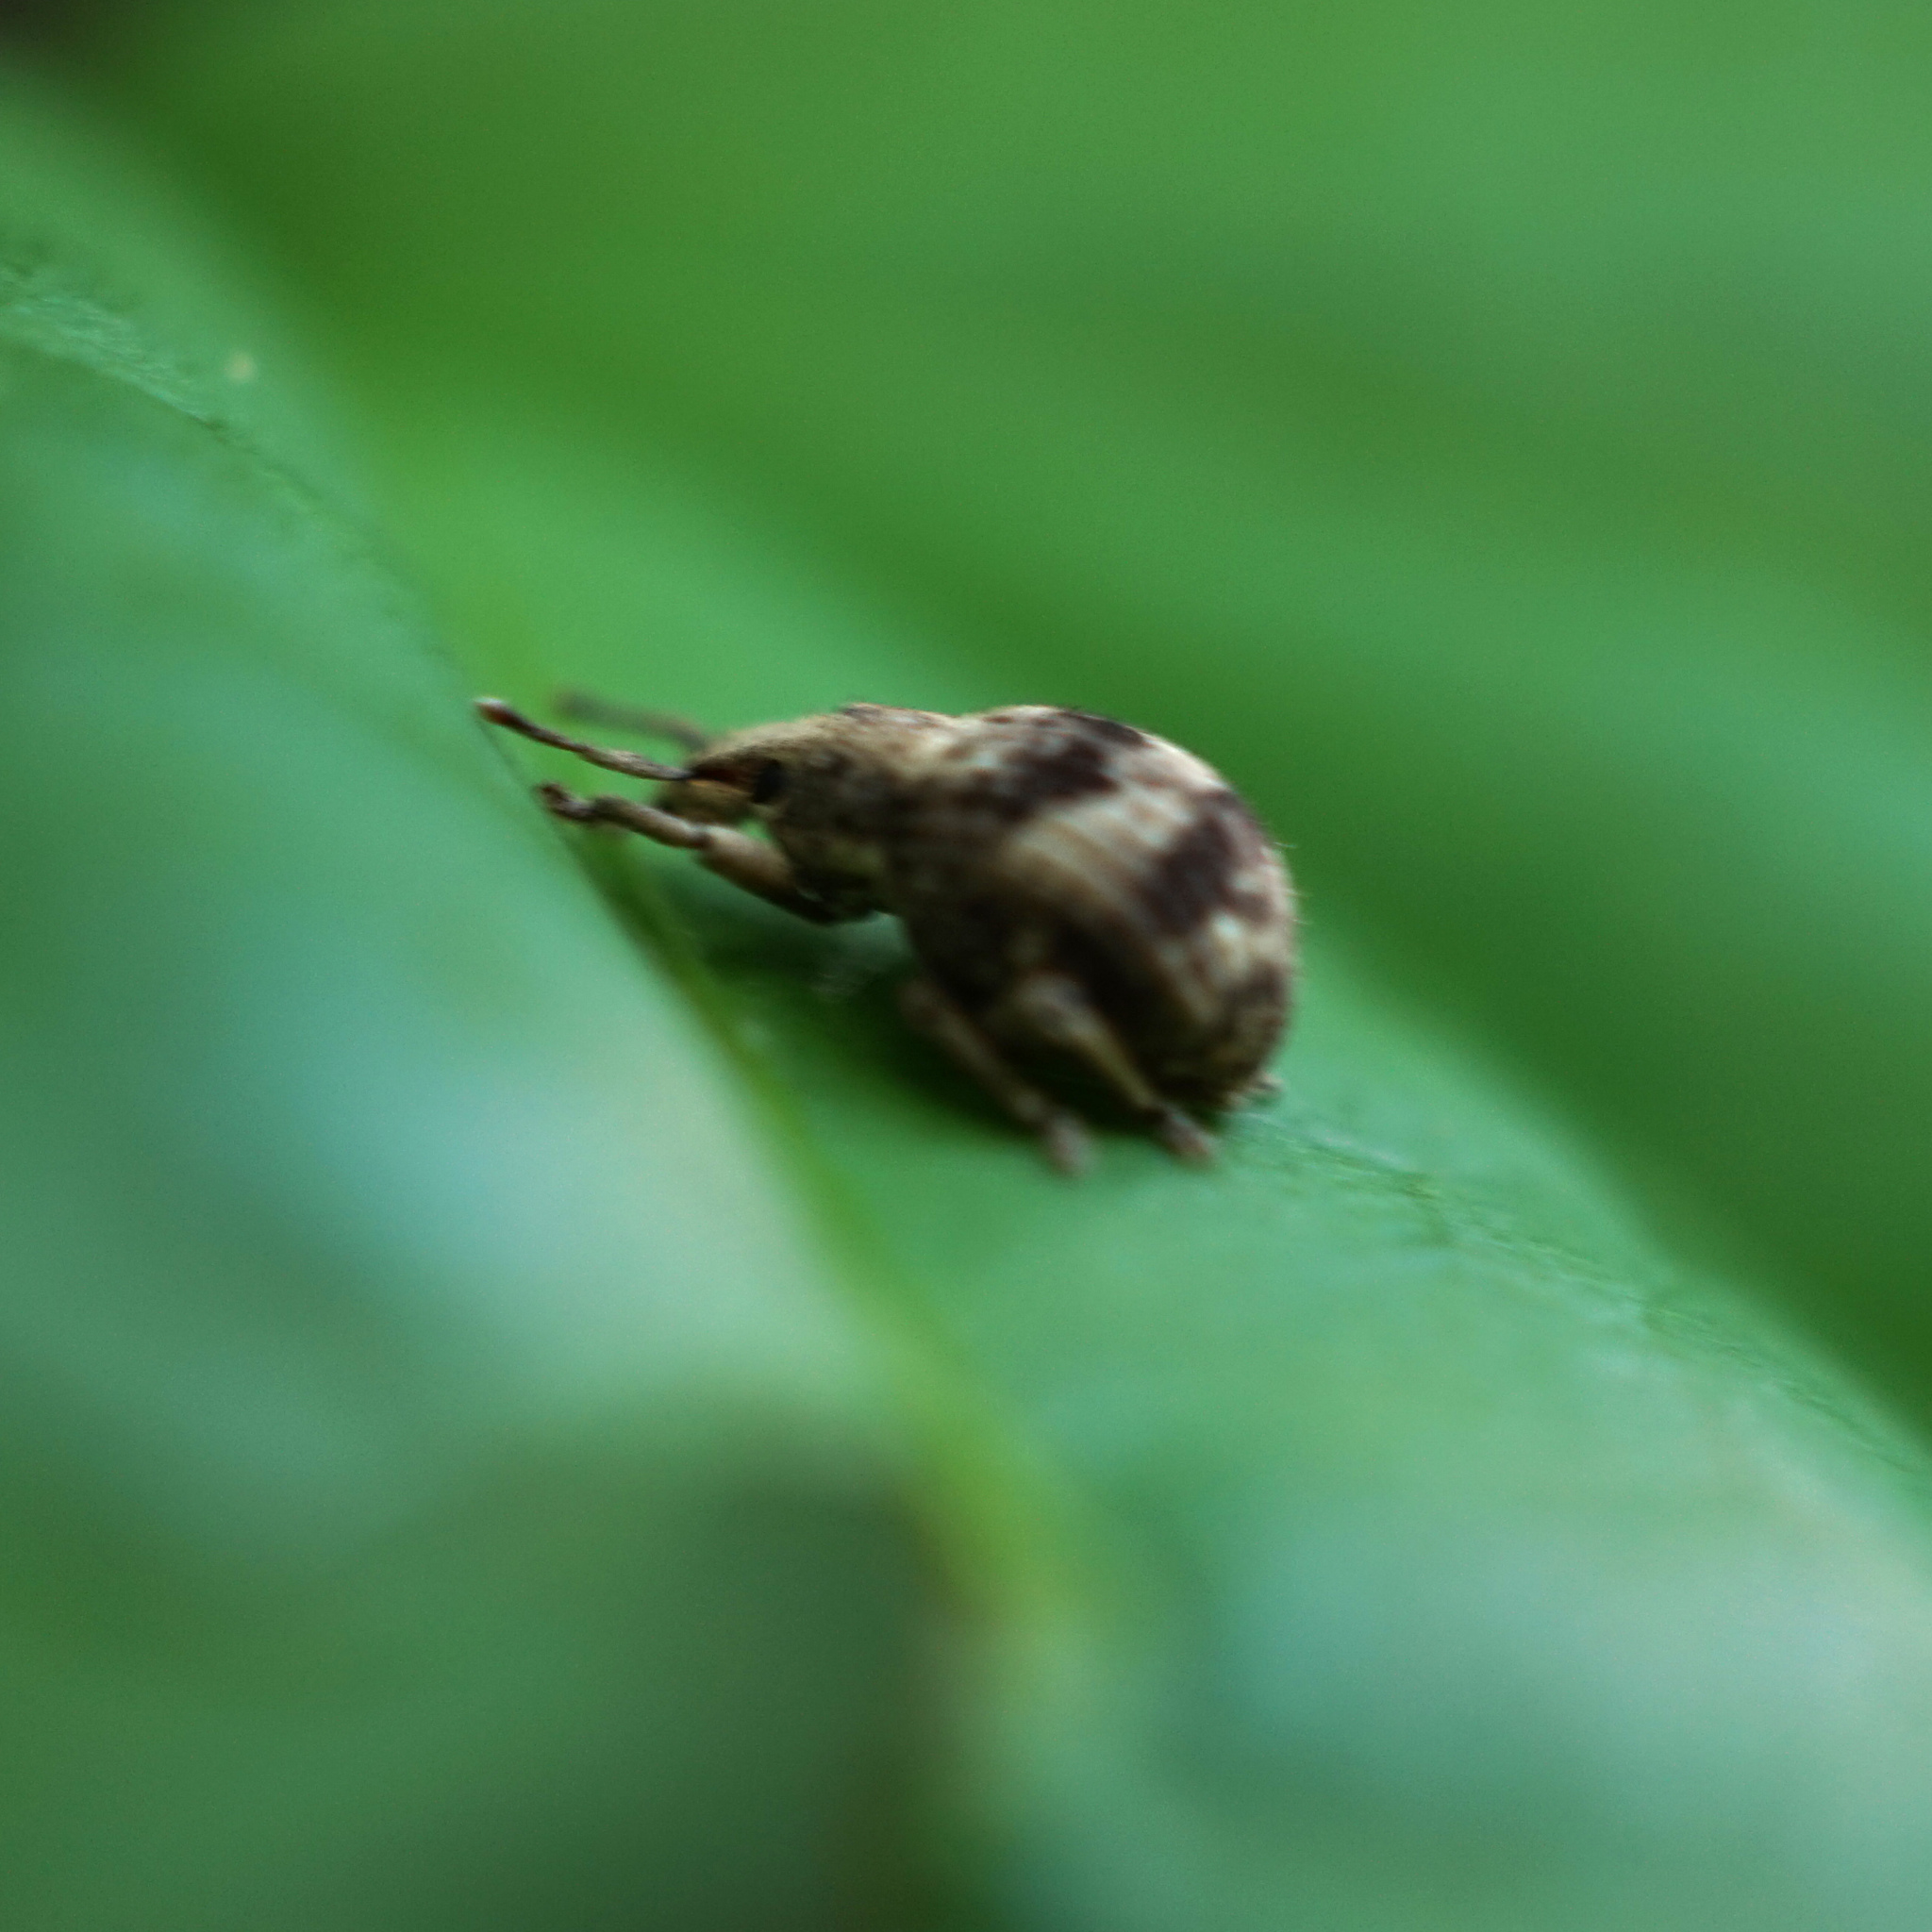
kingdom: Animalia
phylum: Arthropoda
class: Insecta
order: Coleoptera
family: Curculionidae
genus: Pseudocneorhinus
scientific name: Pseudocneorhinus bifasciatus
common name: Two-banded japanese weevil
